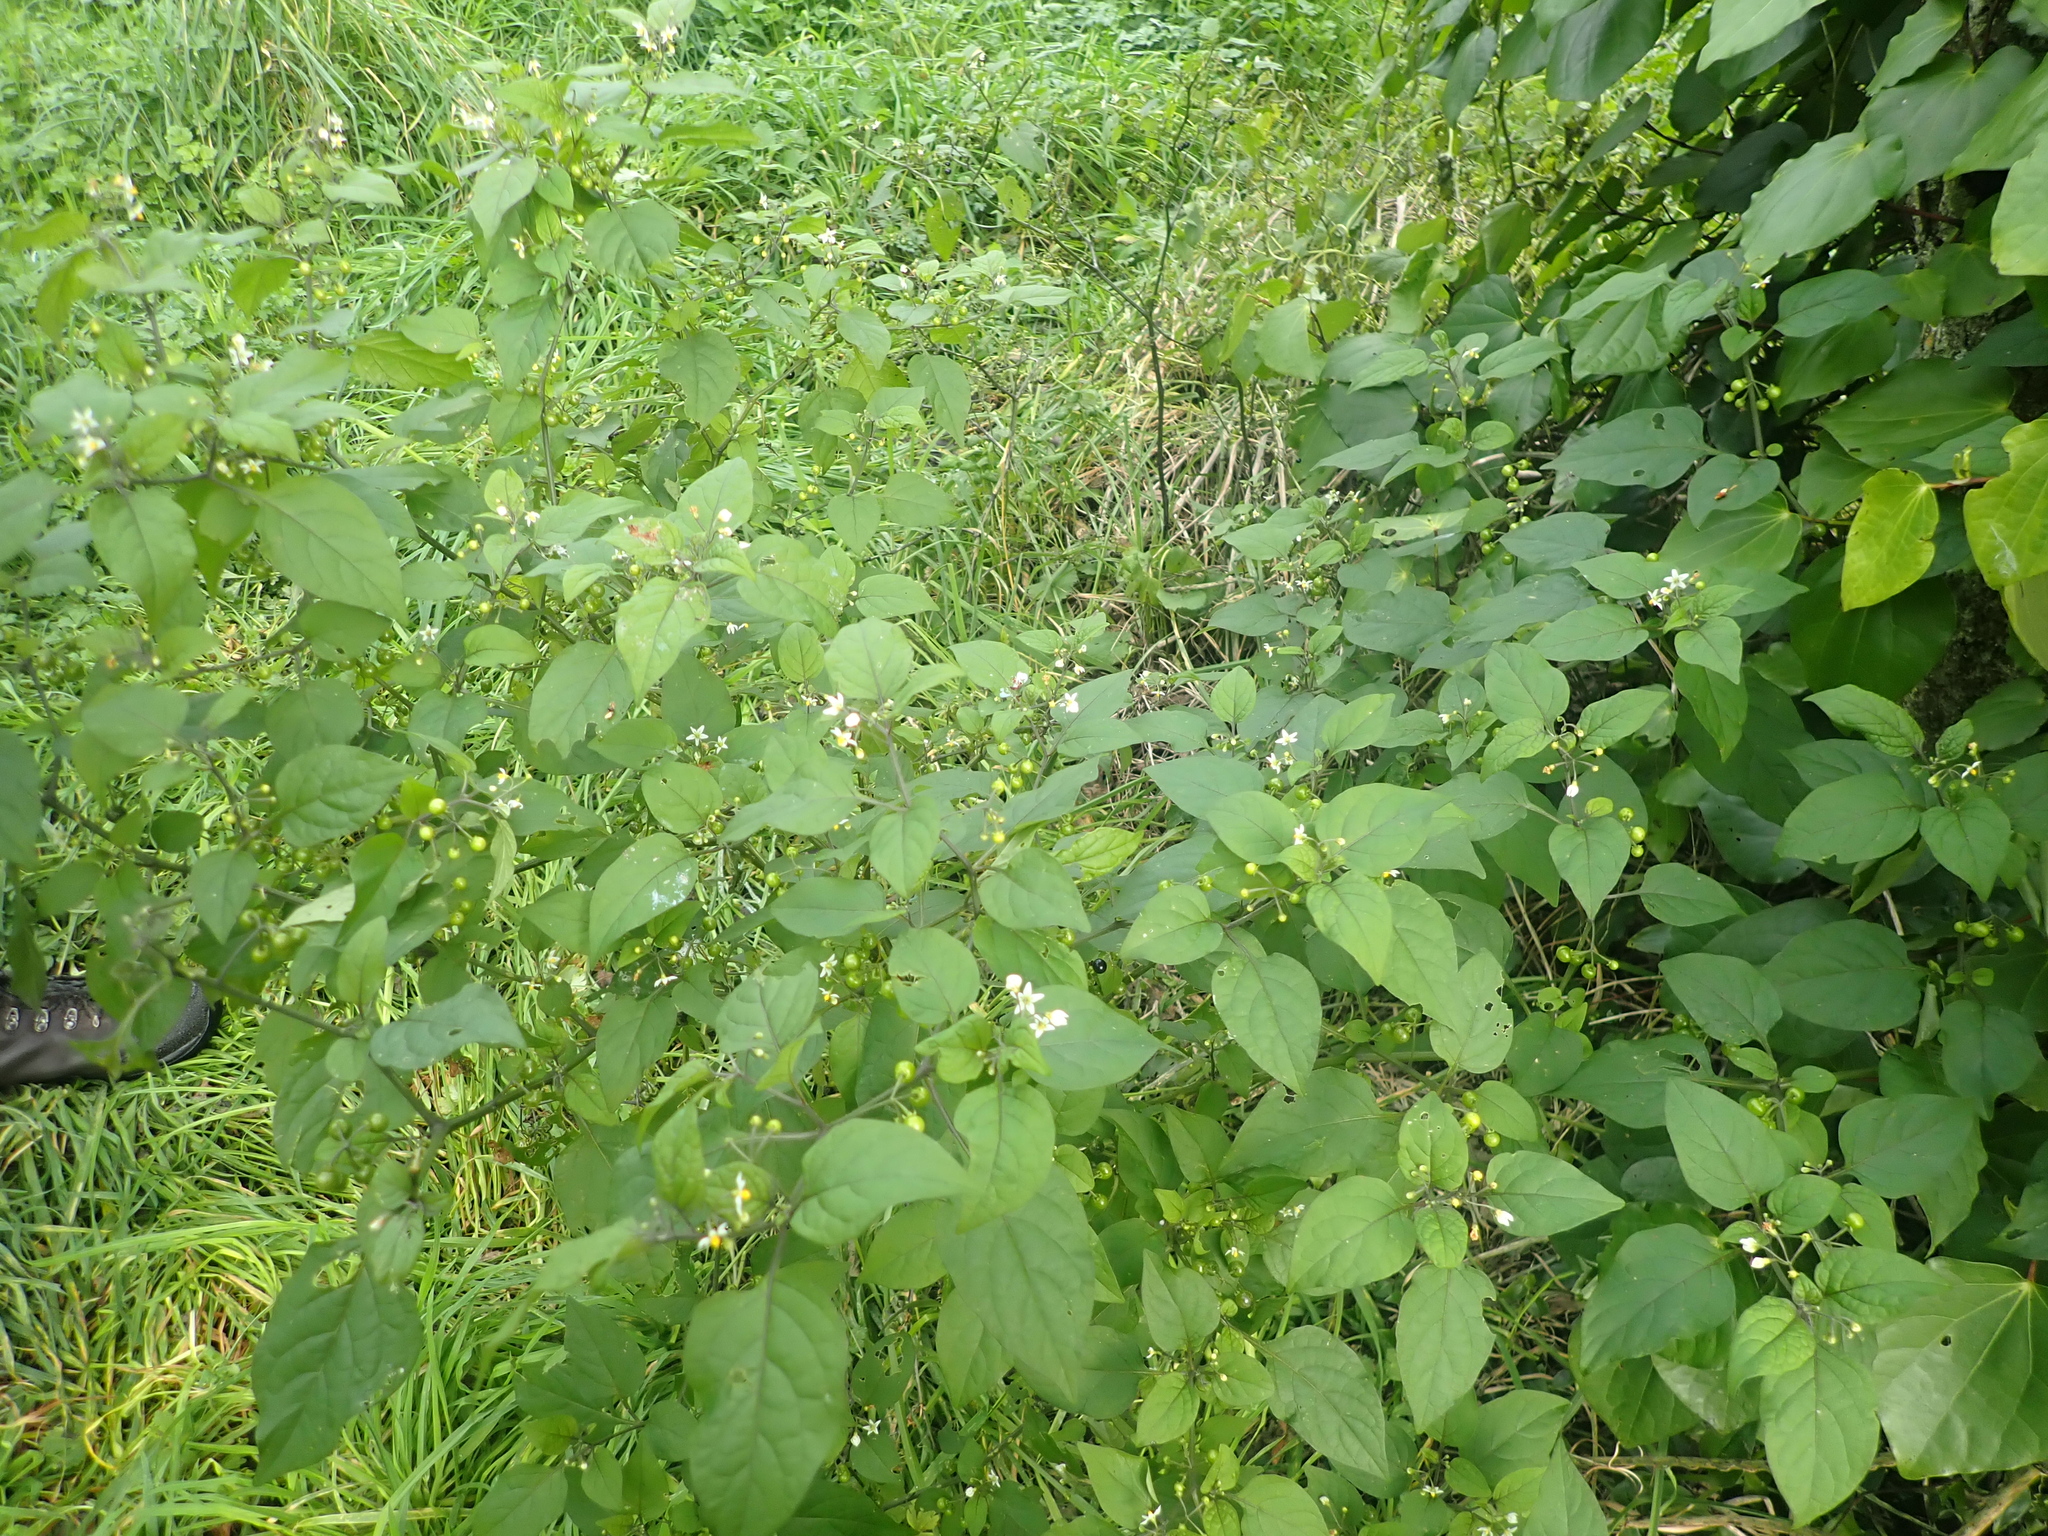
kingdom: Plantae
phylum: Tracheophyta
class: Magnoliopsida
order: Solanales
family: Solanaceae
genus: Solanum
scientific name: Solanum americanum
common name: American black nightshade
